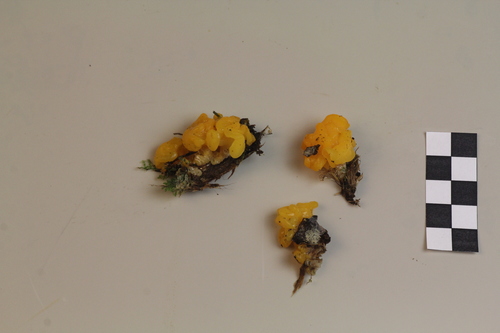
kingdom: Fungi
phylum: Basidiomycota
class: Dacrymycetes
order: Dacrymycetales
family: Dacrymycetaceae
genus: Dacrymyces
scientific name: Dacrymyces chrysospermus
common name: Orange jelly spot
